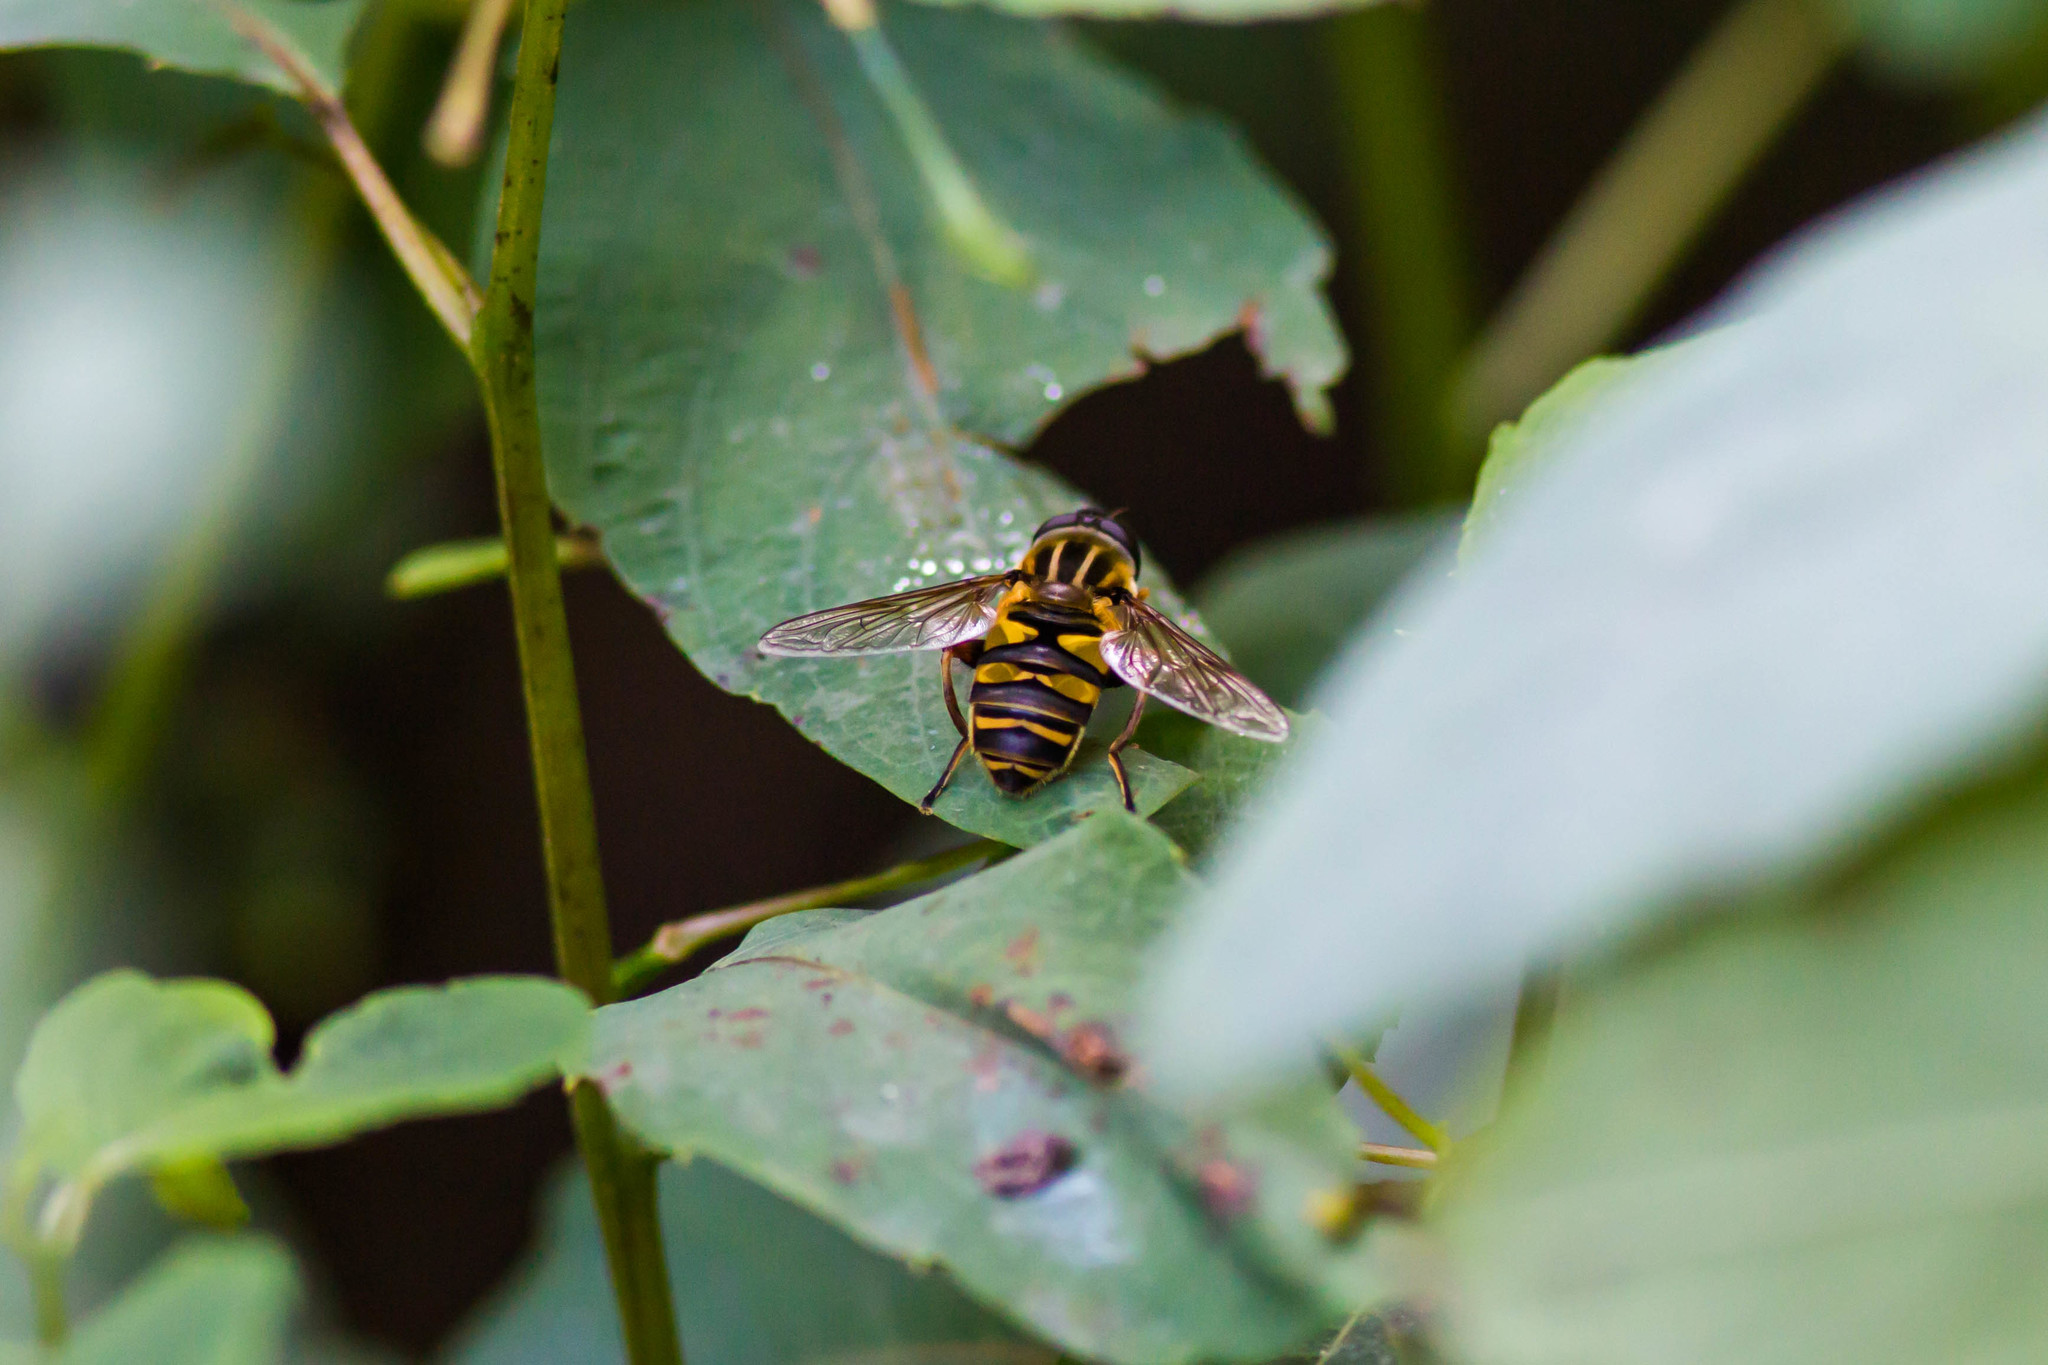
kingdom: Animalia
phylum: Arthropoda
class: Insecta
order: Diptera
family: Syrphidae
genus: Helophilus
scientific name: Helophilus fasciatus
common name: Narrow-headed marsh fly
